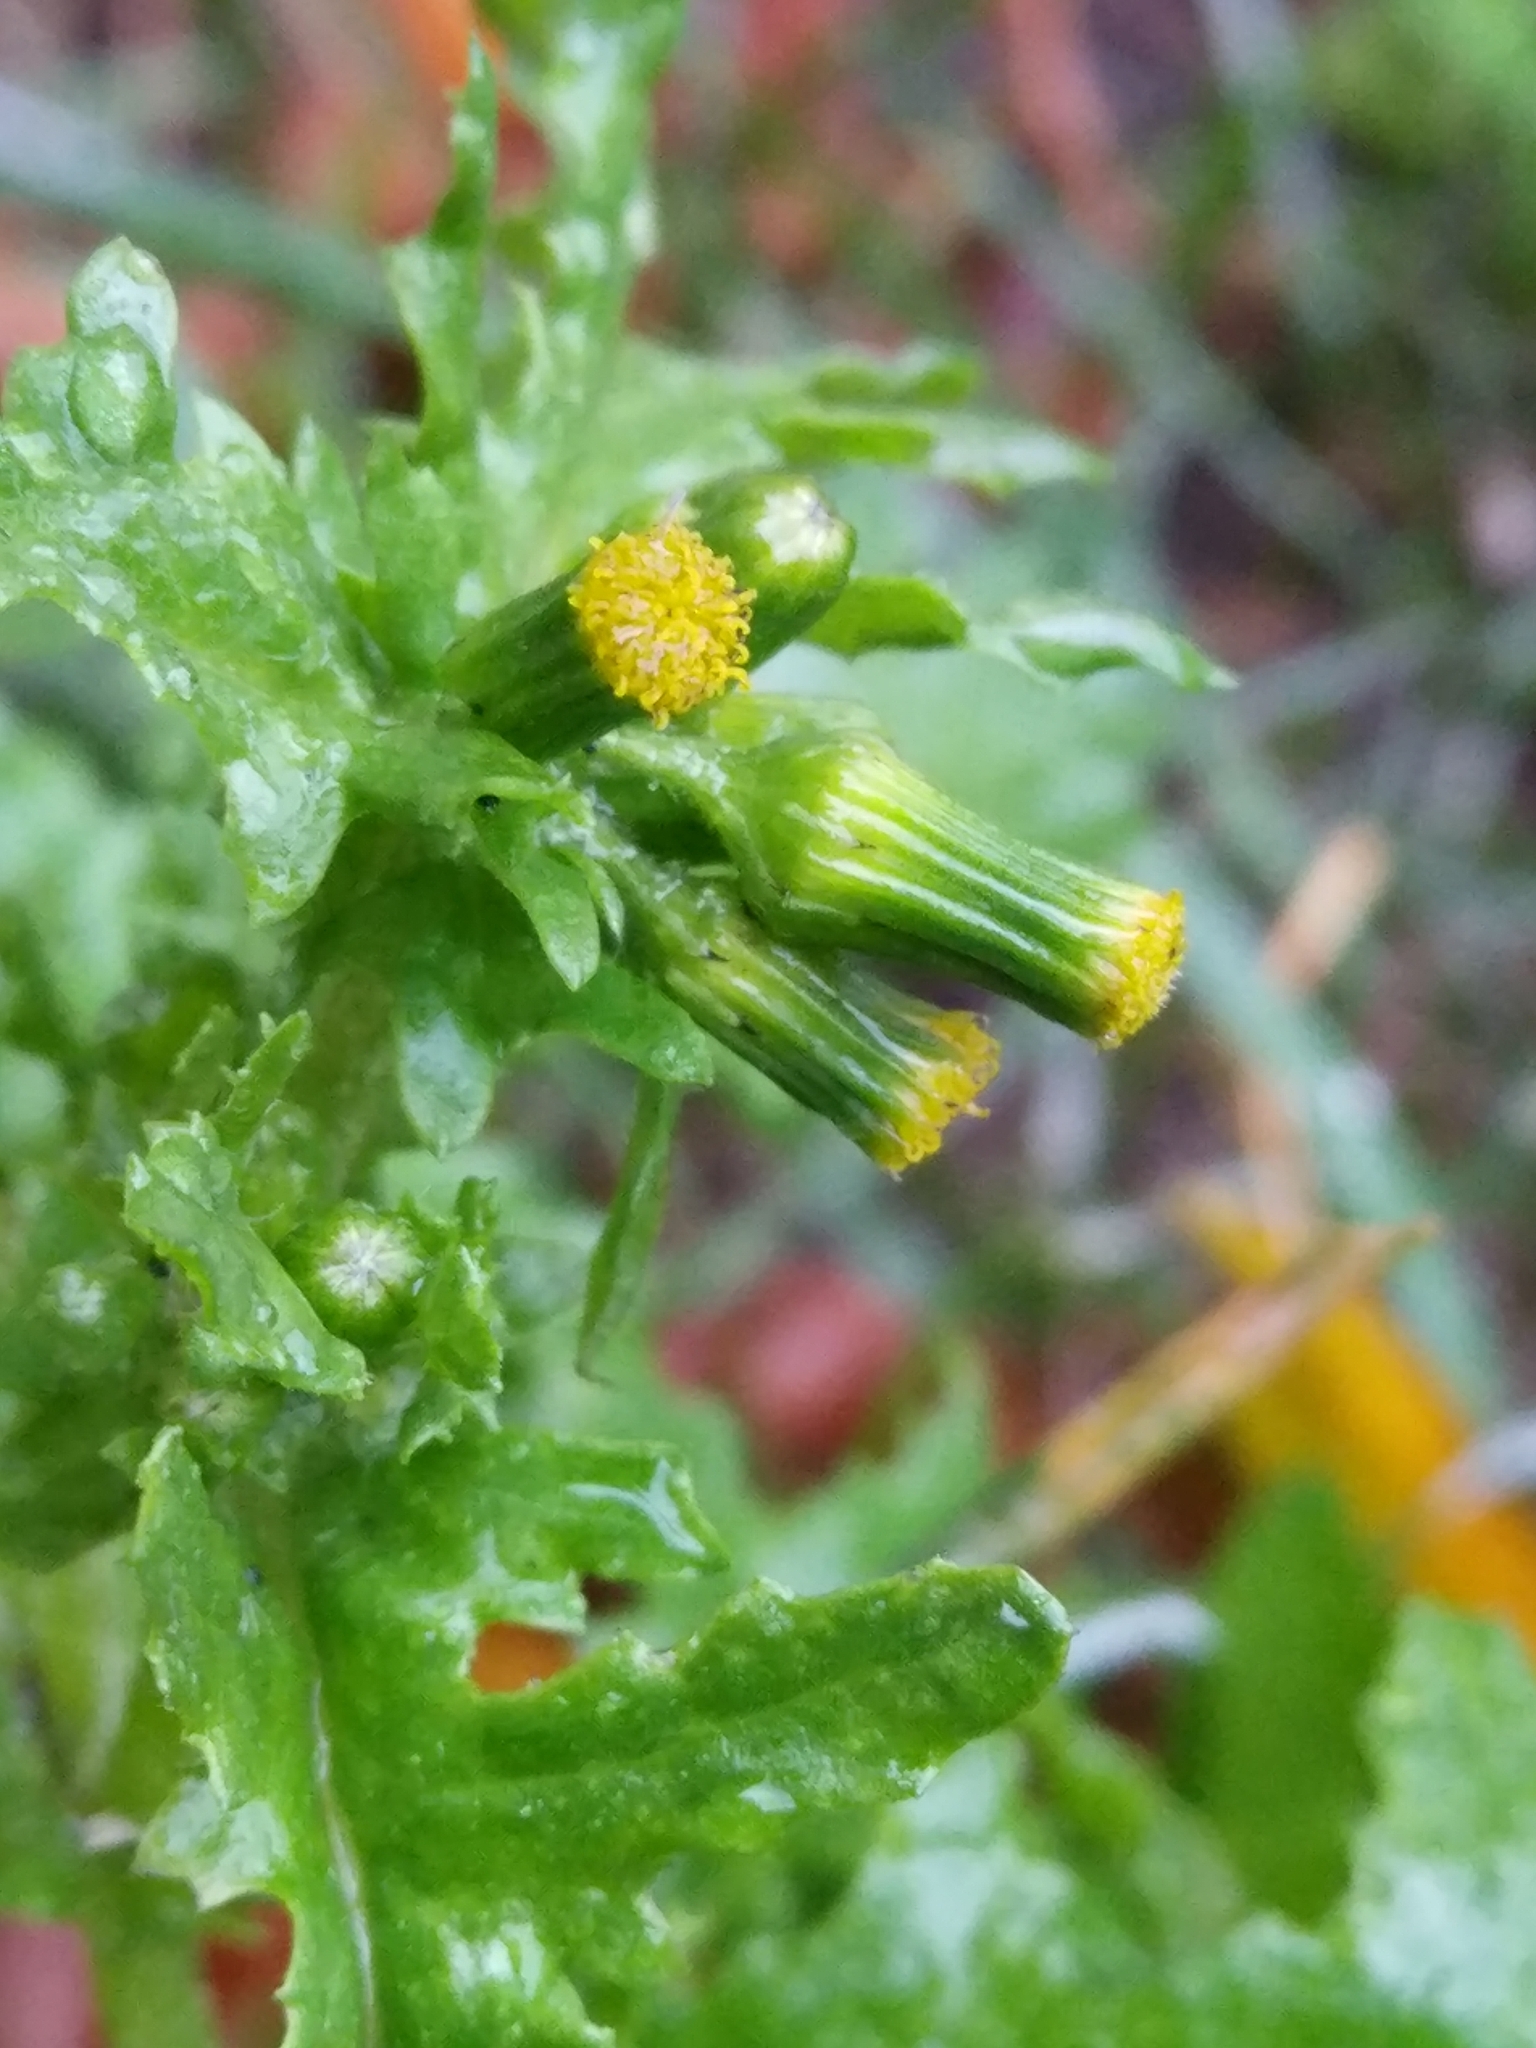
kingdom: Plantae
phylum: Tracheophyta
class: Magnoliopsida
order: Asterales
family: Asteraceae
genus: Senecio
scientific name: Senecio vulgaris
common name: Old-man-in-the-spring
